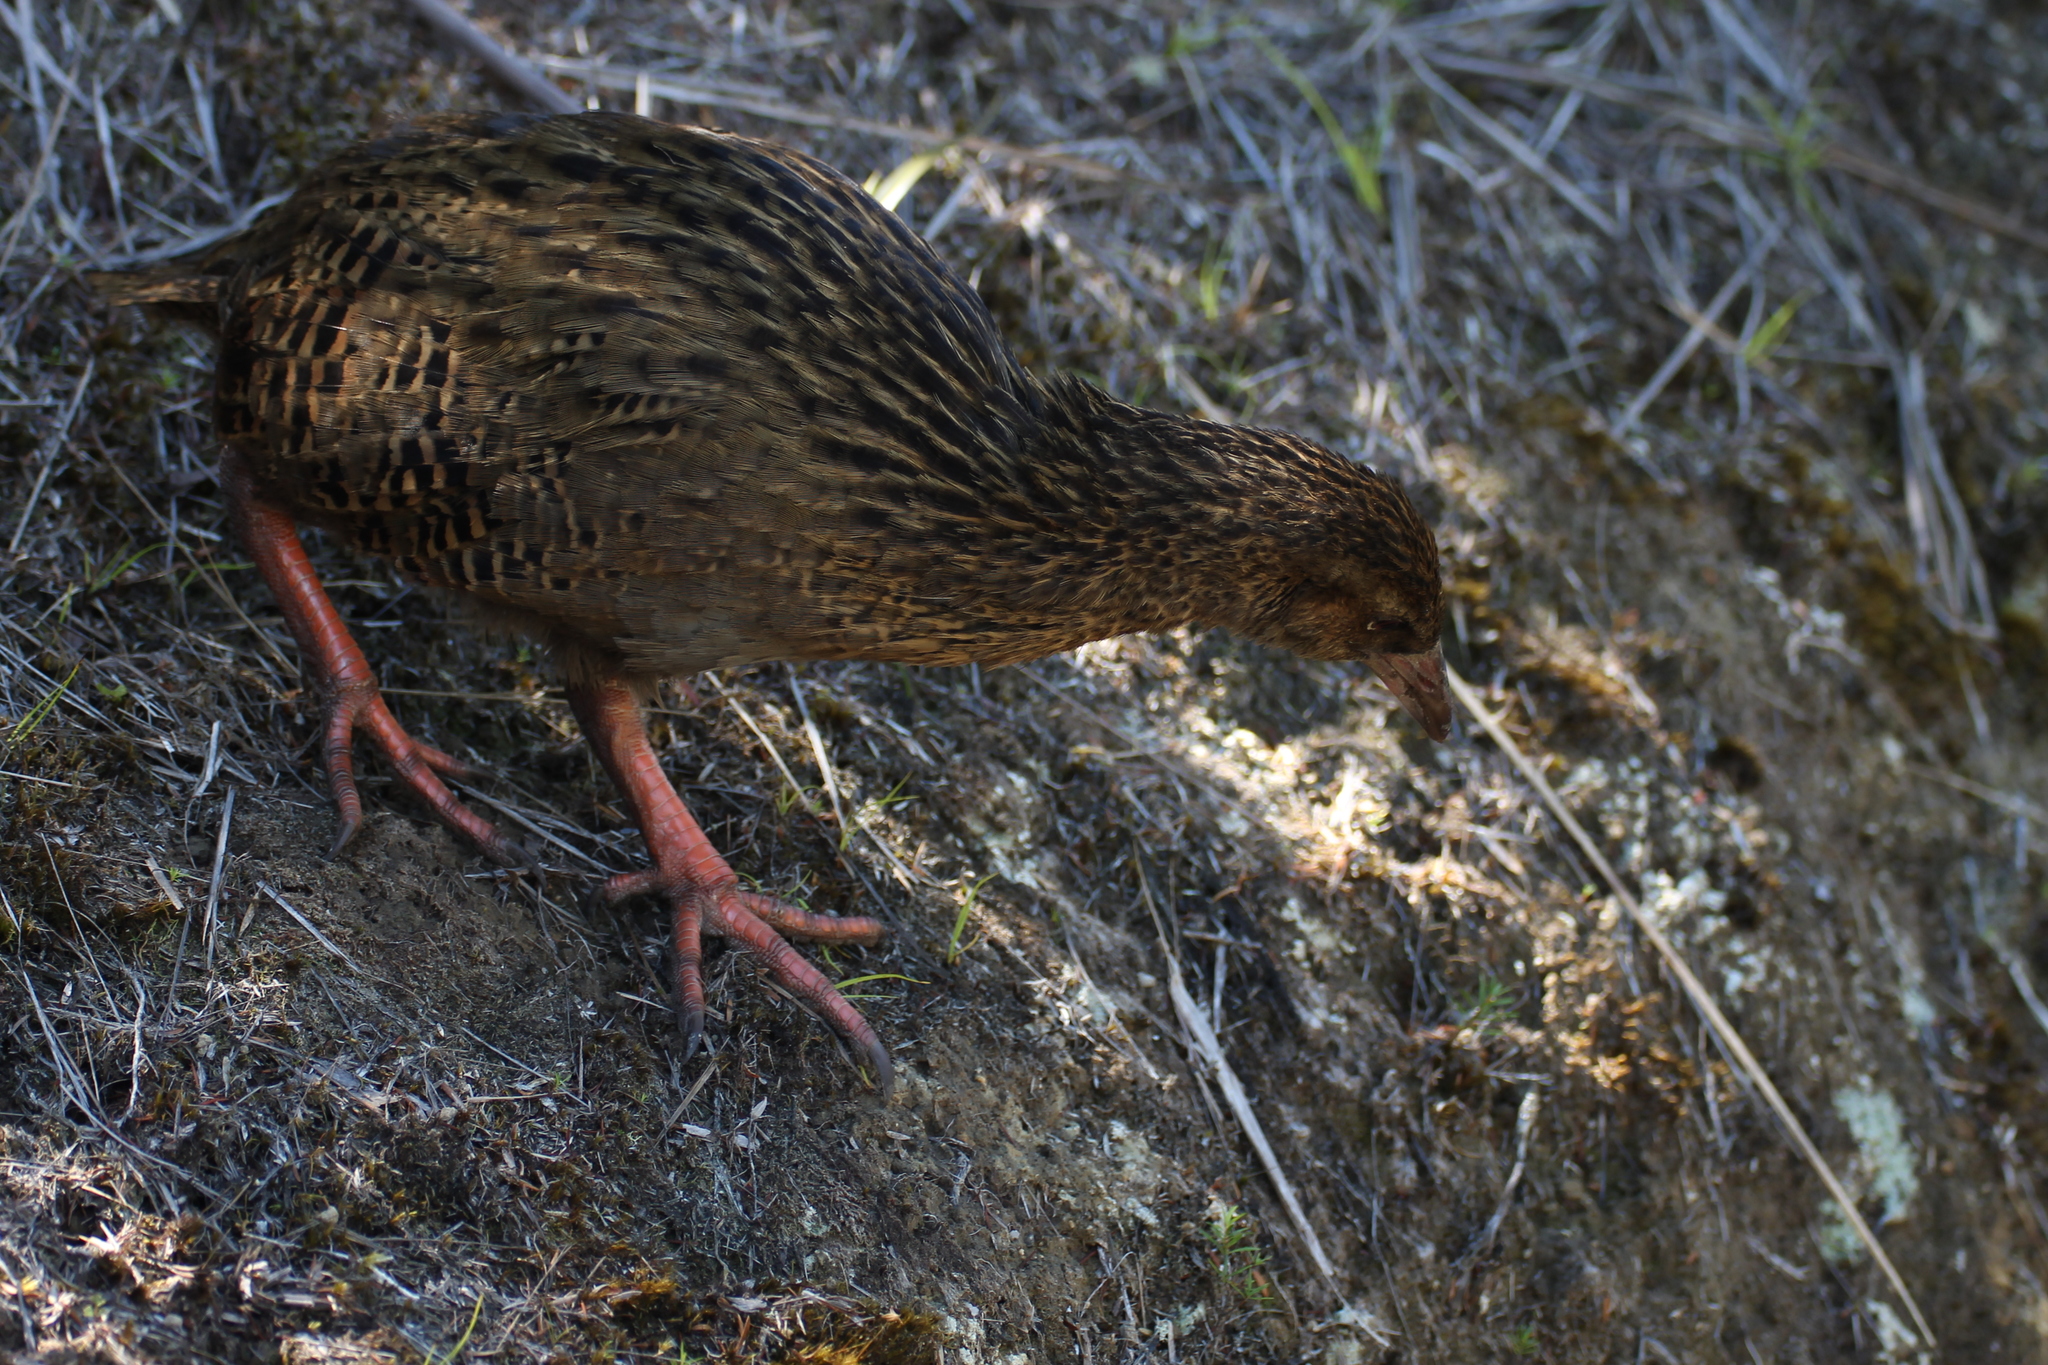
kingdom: Animalia
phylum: Chordata
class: Aves
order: Gruiformes
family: Rallidae
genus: Gallirallus
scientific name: Gallirallus australis
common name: Weka
